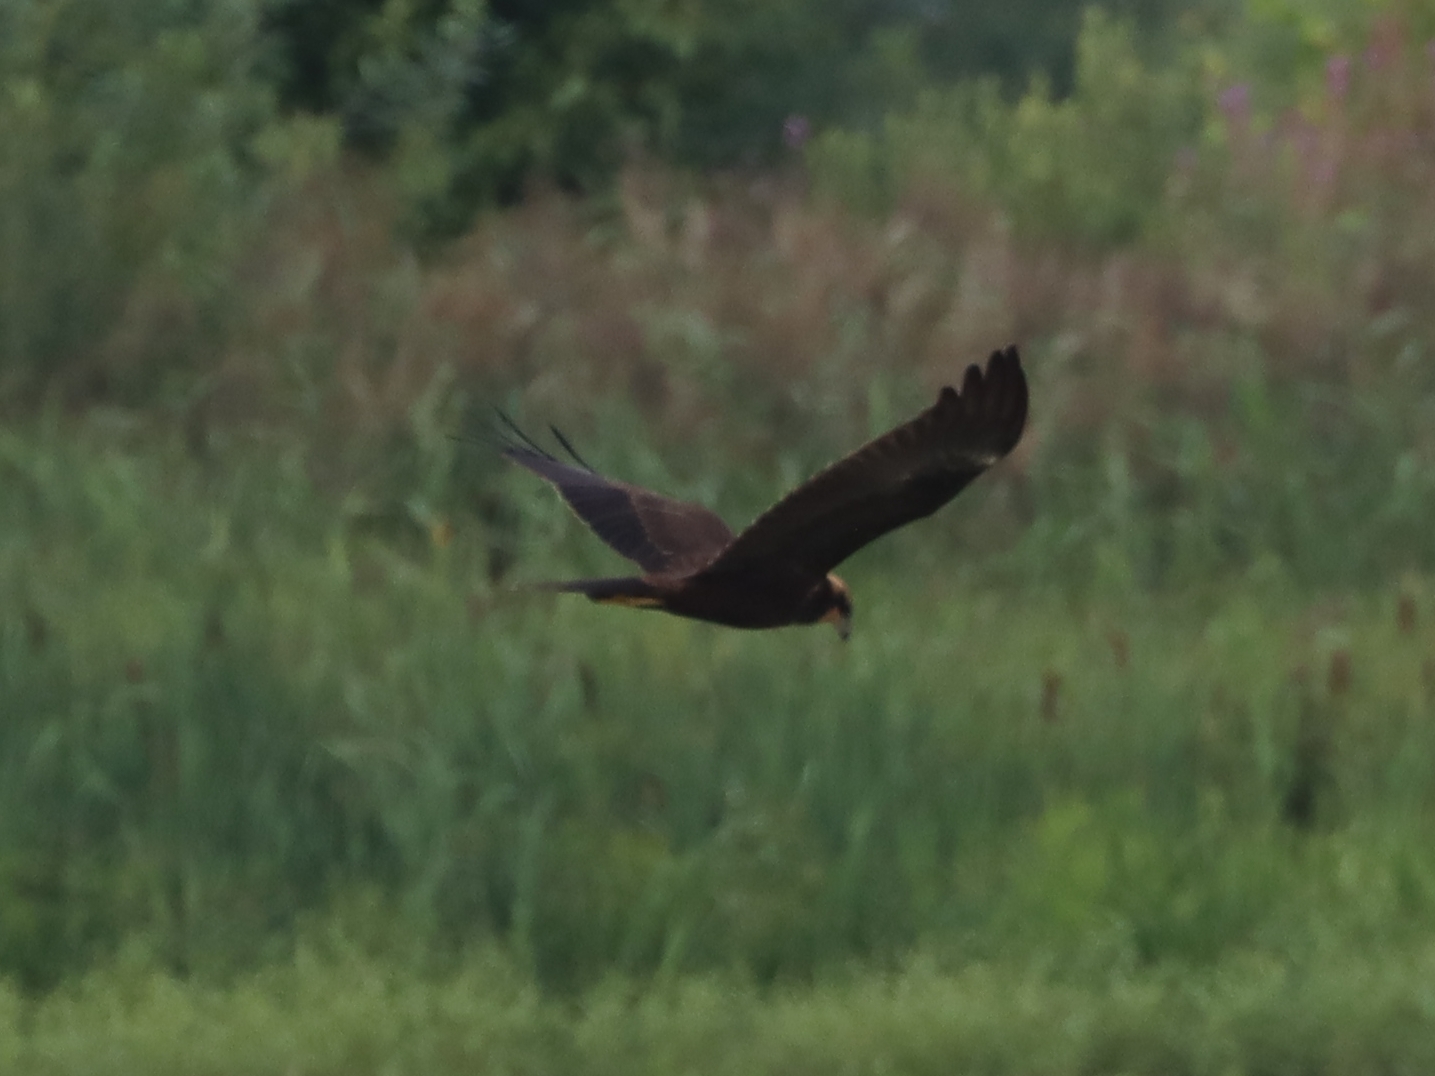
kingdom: Animalia
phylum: Chordata
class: Aves
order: Accipitriformes
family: Accipitridae
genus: Circus
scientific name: Circus aeruginosus
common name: Western marsh harrier
